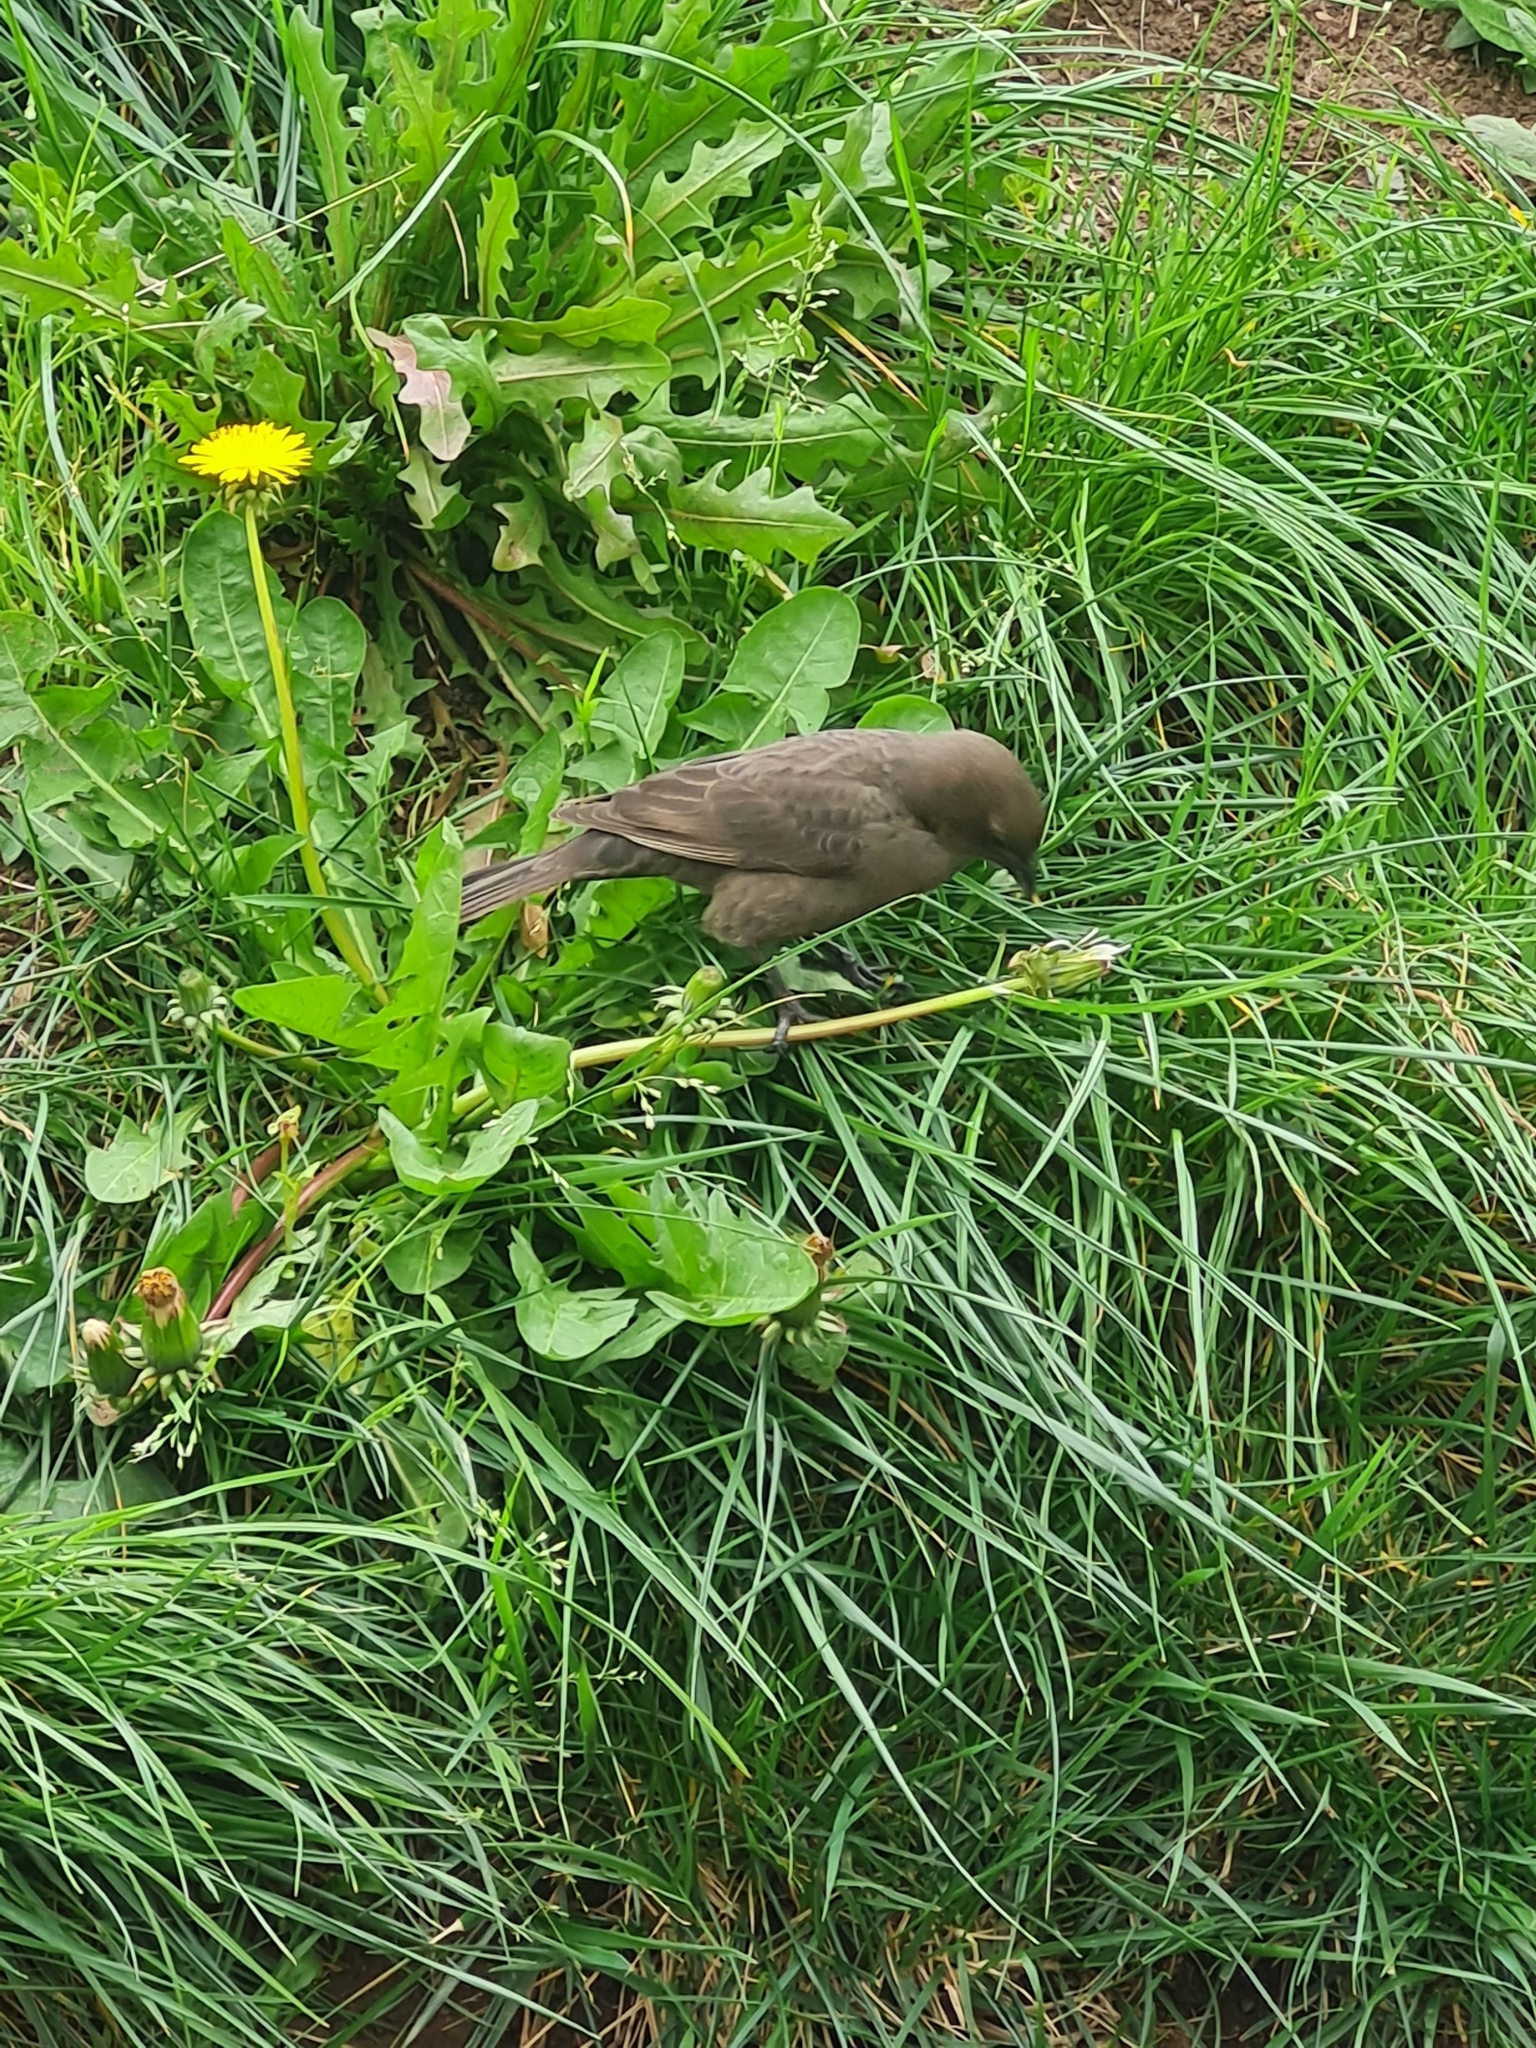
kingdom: Animalia
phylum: Chordata
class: Aves
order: Passeriformes
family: Icteridae
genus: Molothrus
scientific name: Molothrus bonariensis
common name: Shiny cowbird
